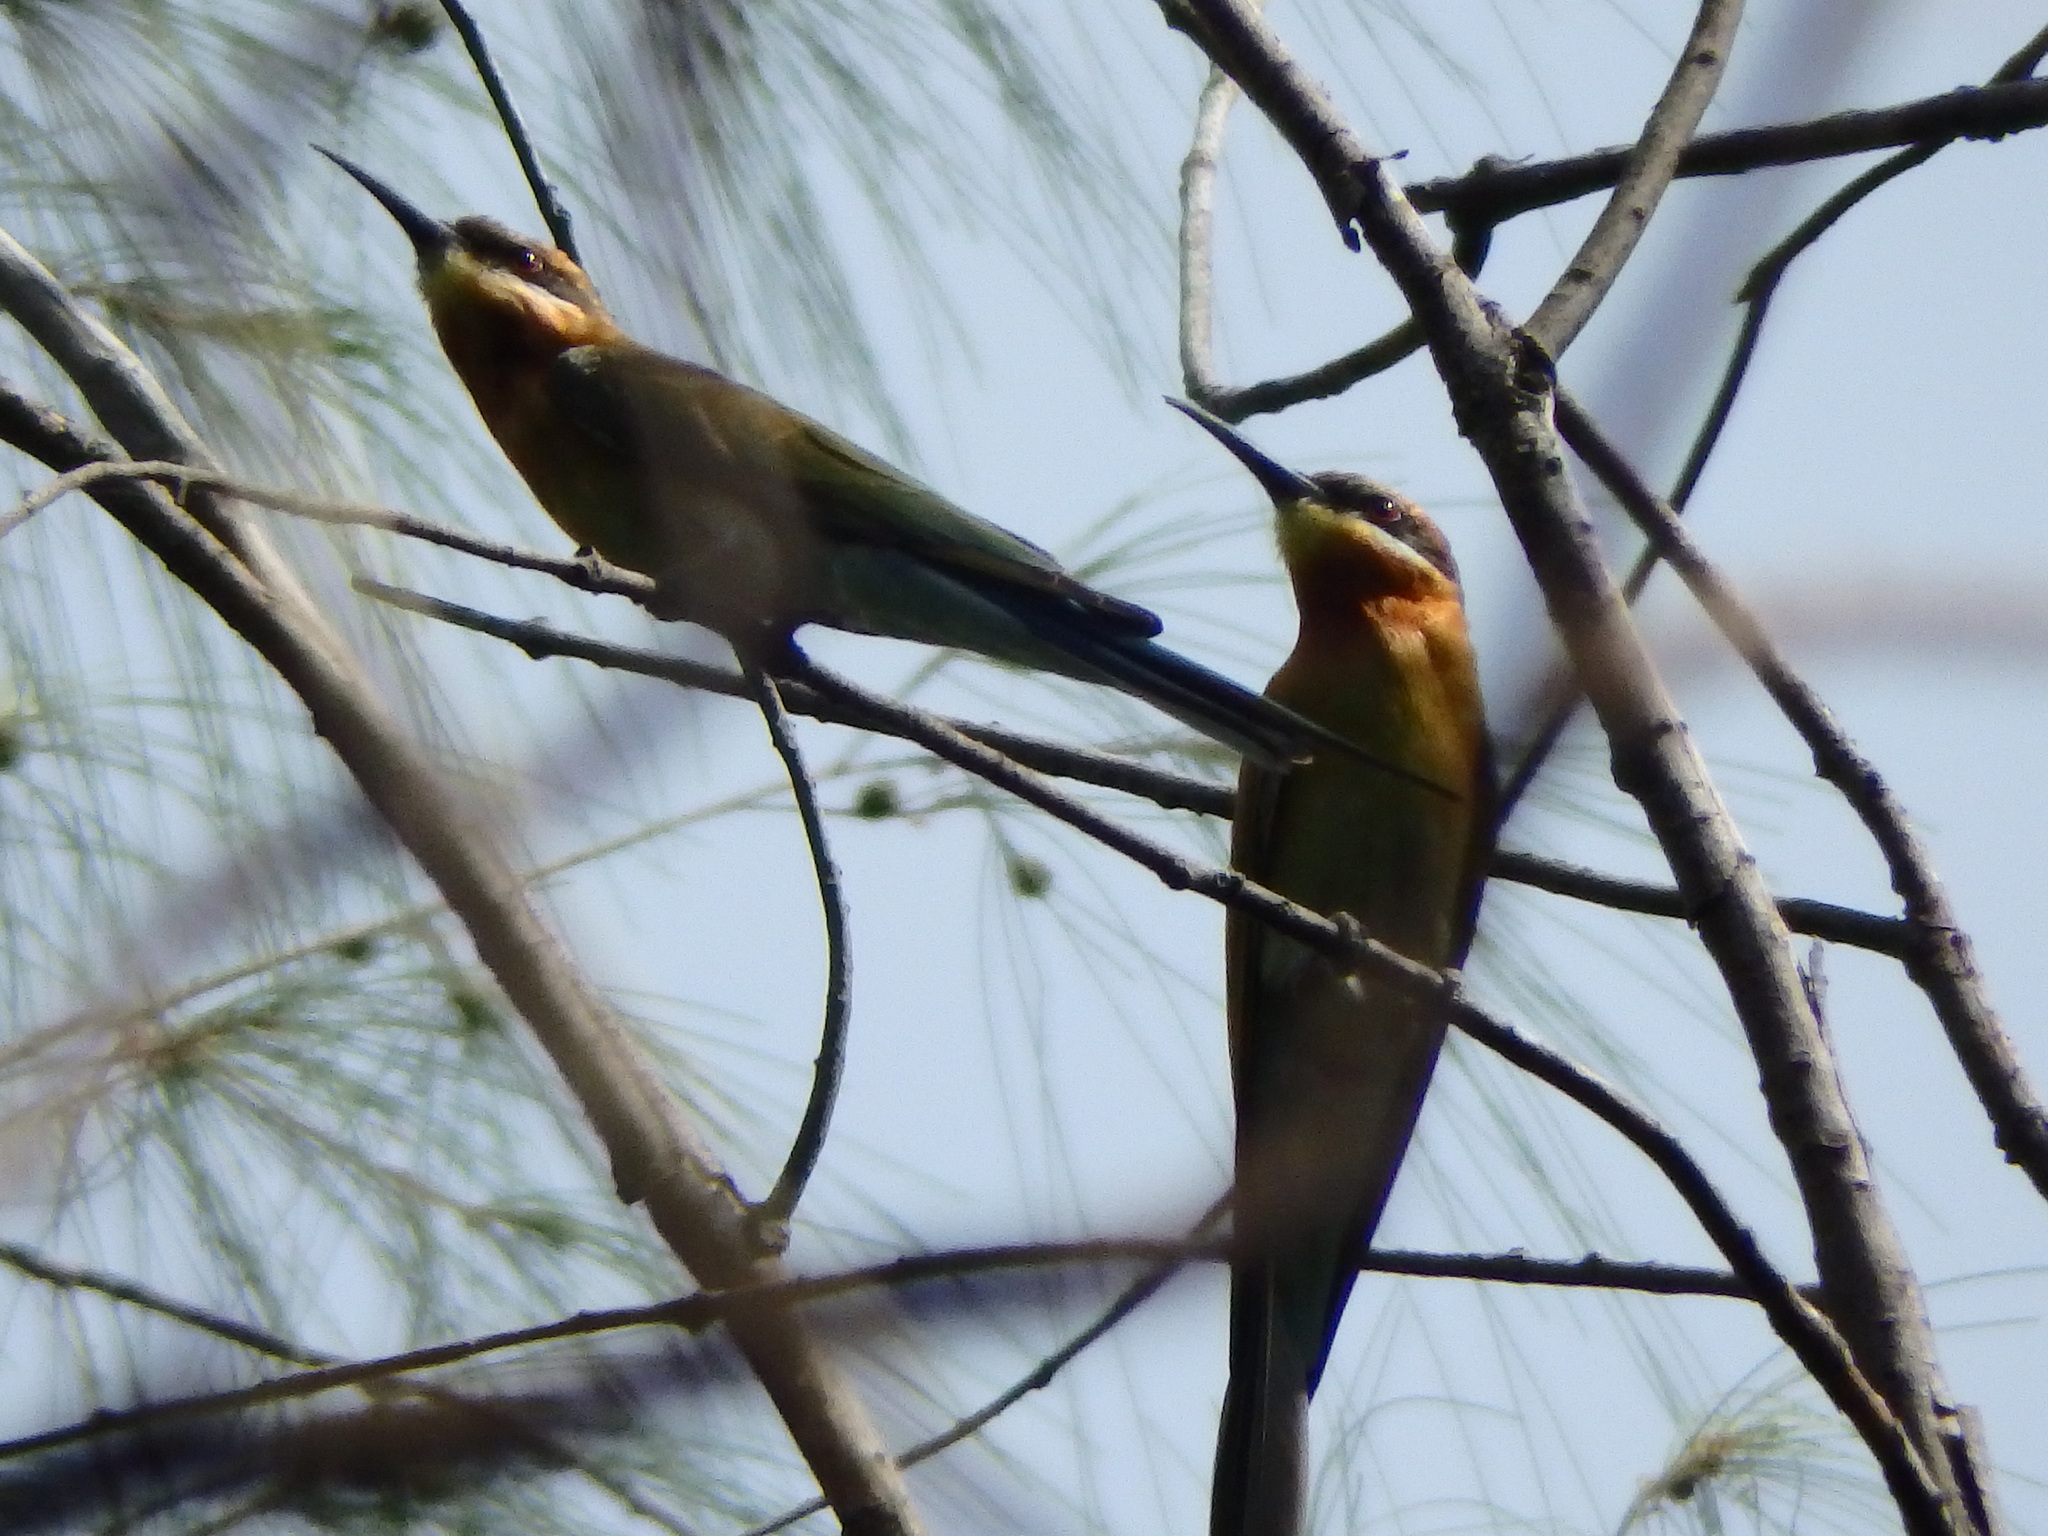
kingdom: Animalia
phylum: Chordata
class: Aves
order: Coraciiformes
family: Meropidae
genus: Merops
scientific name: Merops philippinus
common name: Blue-tailed bee-eater
